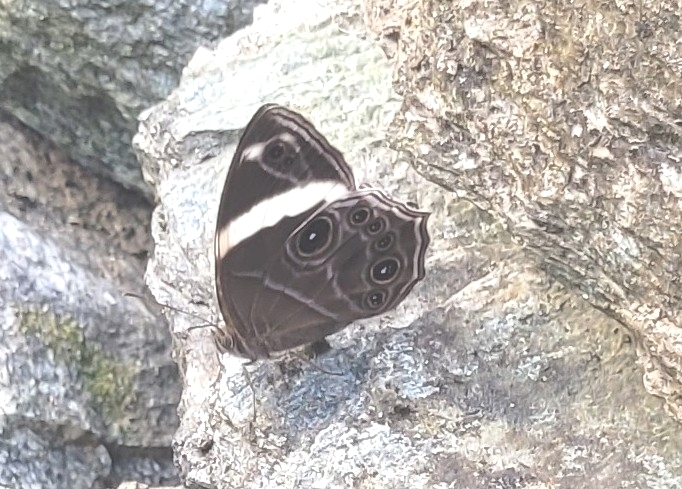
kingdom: Animalia
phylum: Arthropoda
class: Insecta
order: Lepidoptera
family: Nymphalidae
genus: Lethe
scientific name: Lethe confusa
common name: Banded treebrown
